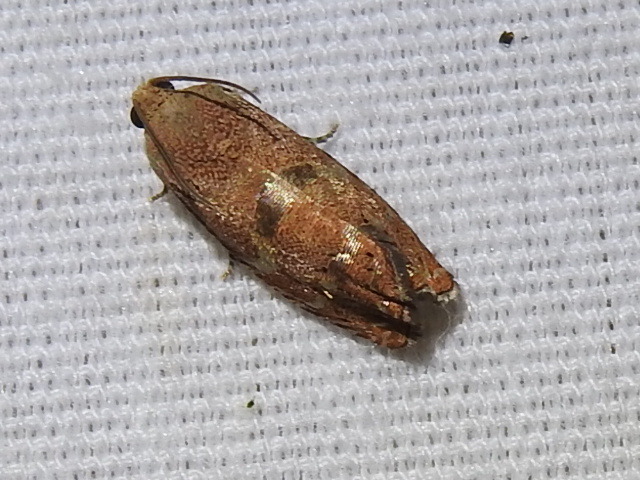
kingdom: Animalia
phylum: Arthropoda
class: Insecta
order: Lepidoptera
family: Tortricidae
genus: Cydia
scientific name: Cydia latiferreana
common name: Filbertworm moth
